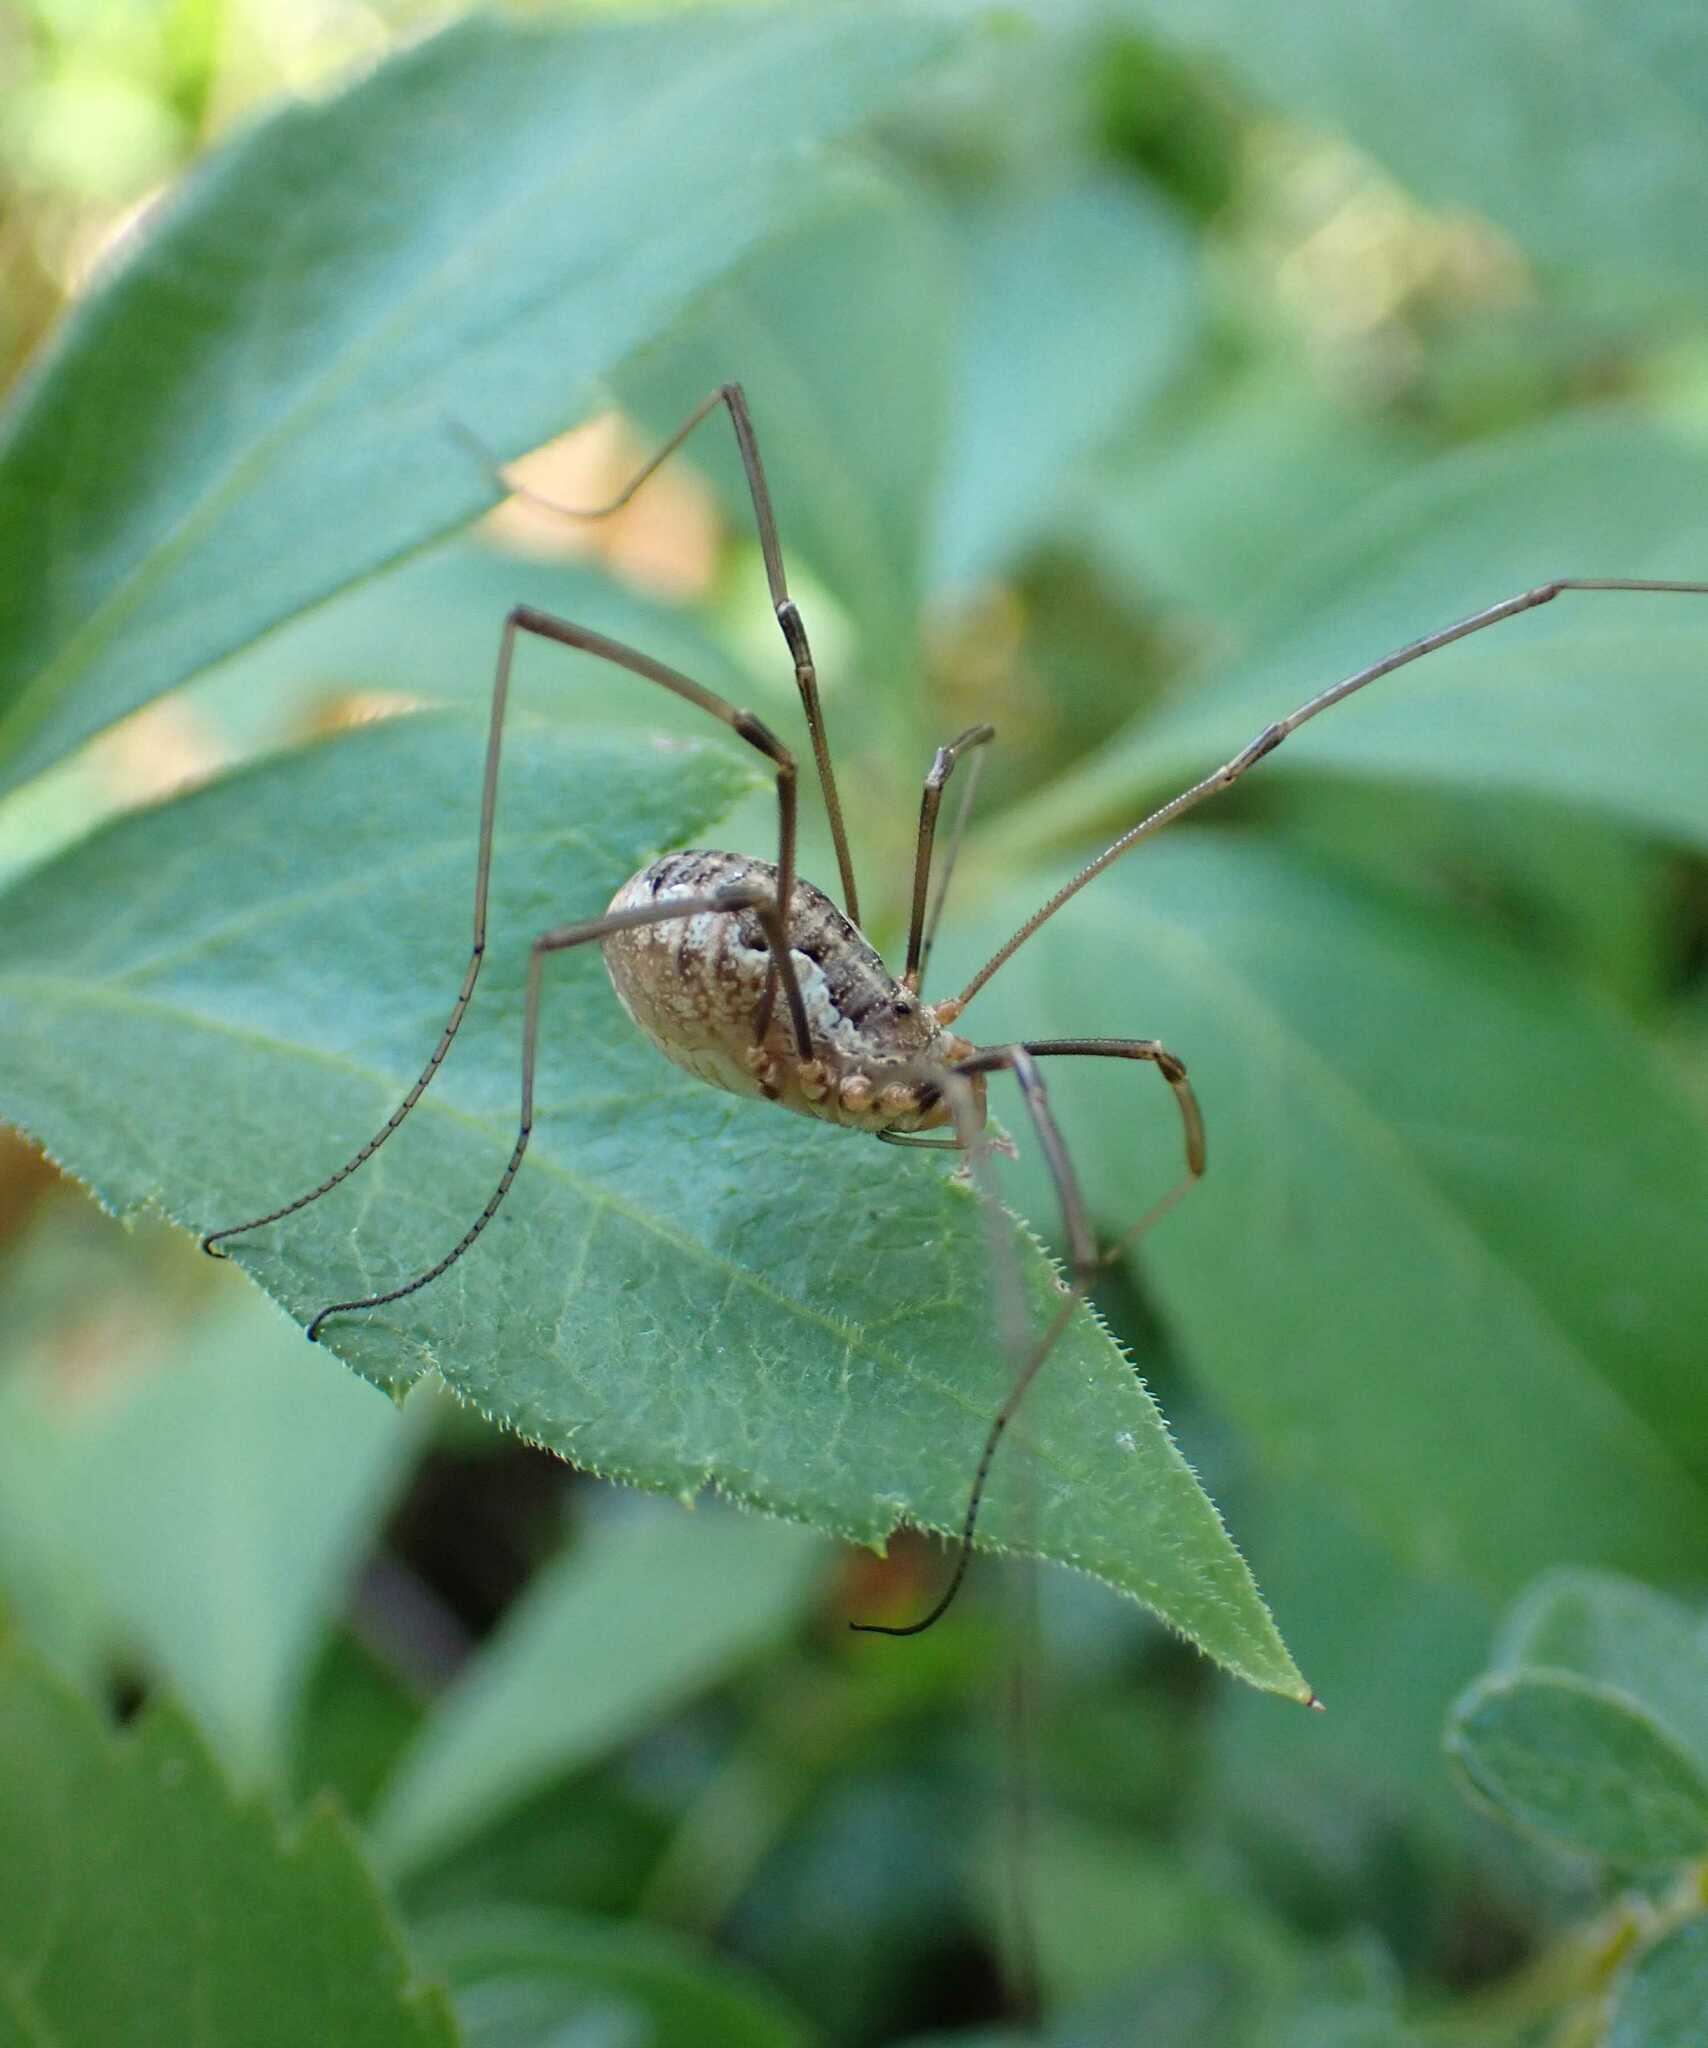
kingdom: Animalia
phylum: Arthropoda
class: Arachnida
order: Opiliones
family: Phalangiidae
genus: Phalangium
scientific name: Phalangium opilio
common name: Daddy longleg
